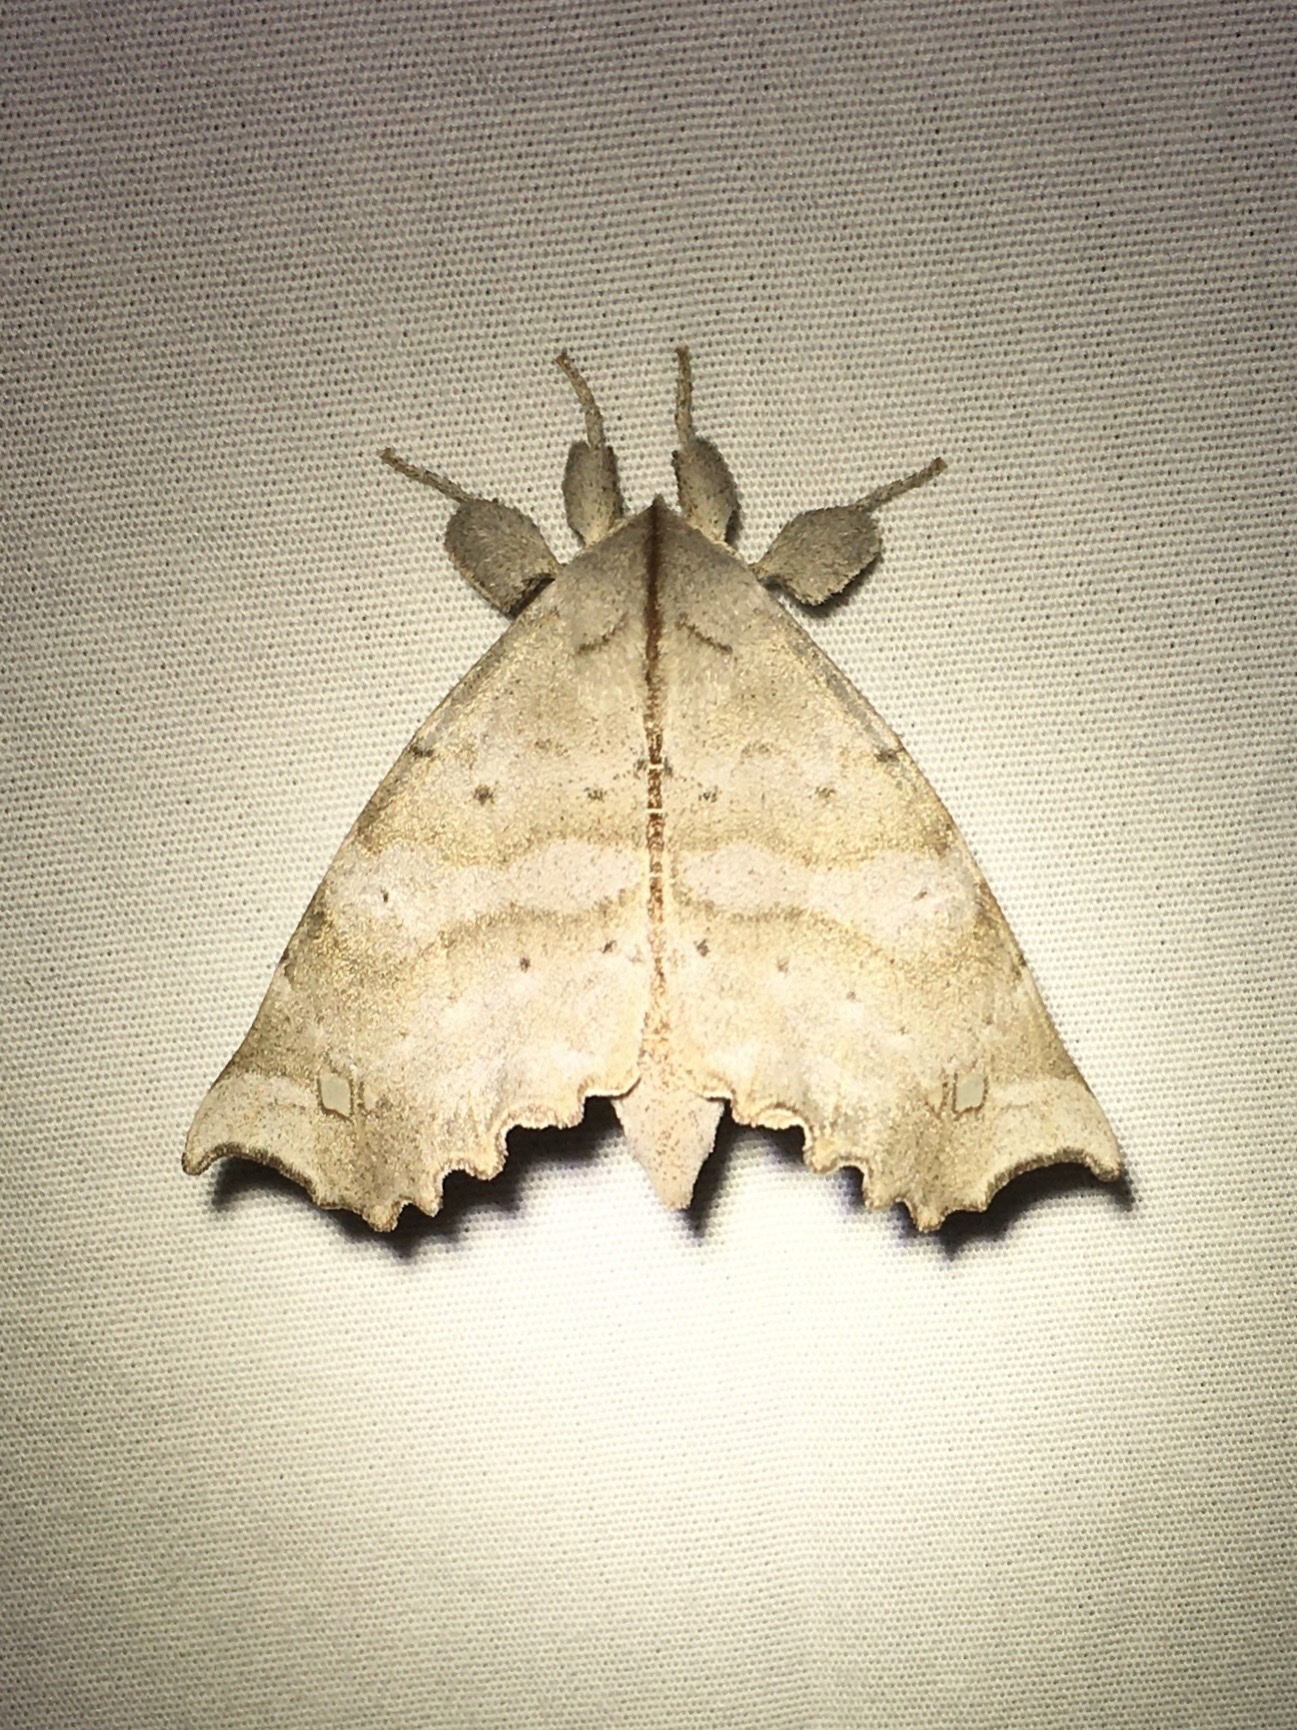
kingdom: Animalia
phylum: Arthropoda
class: Insecta
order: Lepidoptera
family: Apatelodidae
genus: Olceclostera
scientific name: Olceclostera angelica
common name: Angel moth
